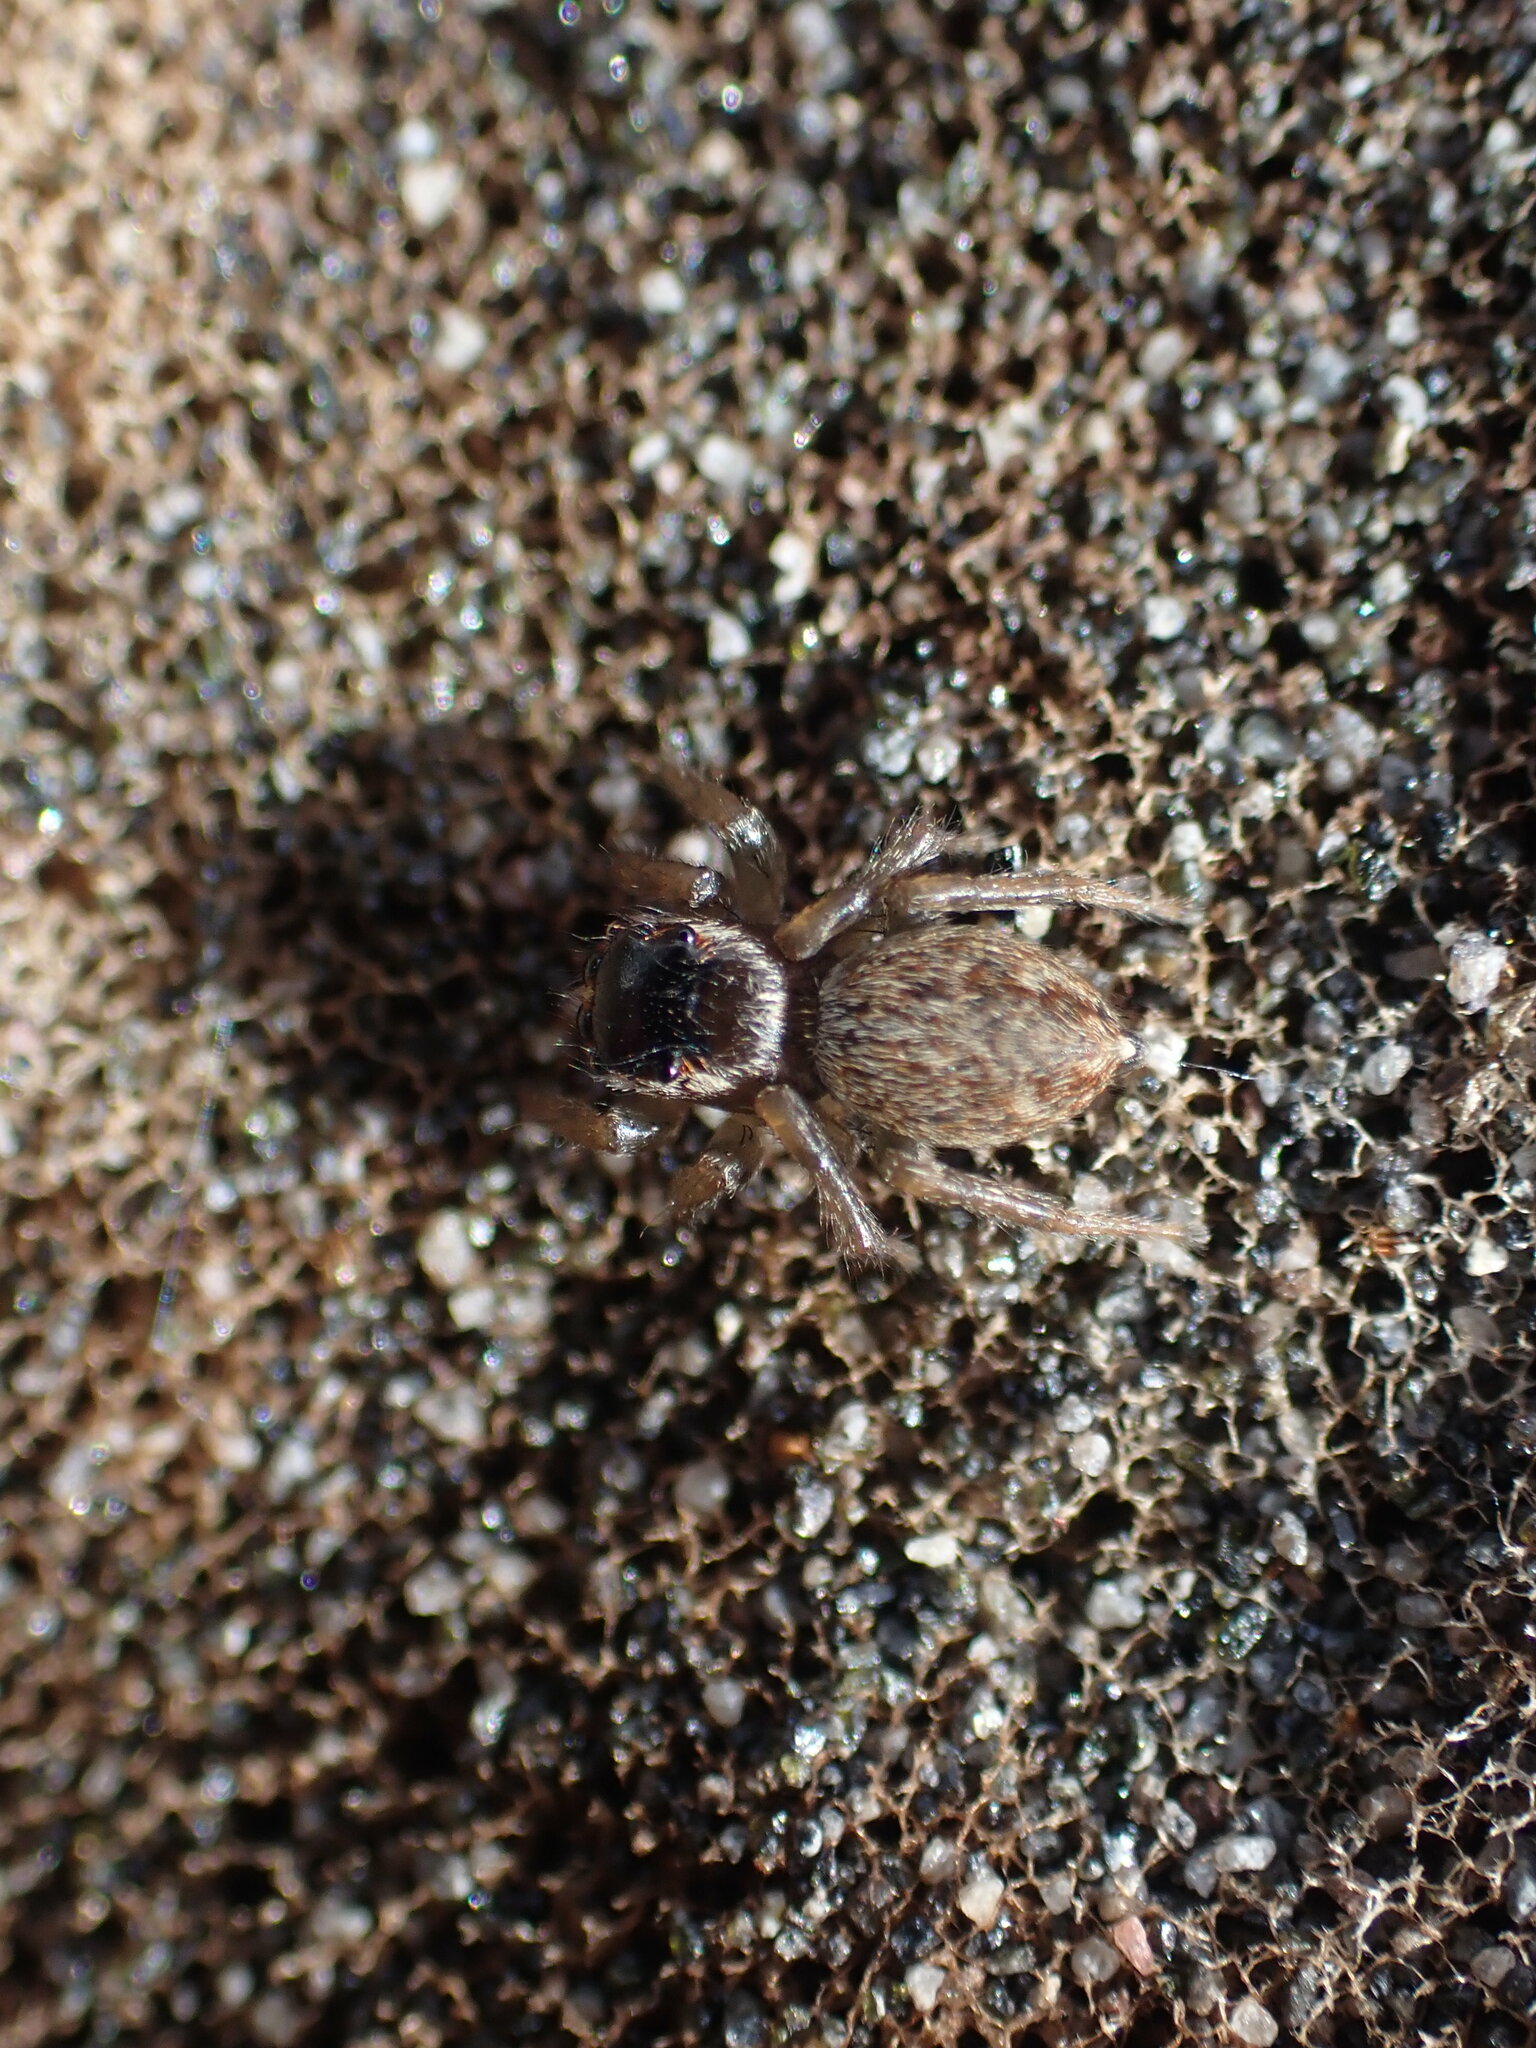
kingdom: Animalia
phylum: Arthropoda
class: Arachnida
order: Araneae
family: Salticidae
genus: Maratus
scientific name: Maratus griseus
